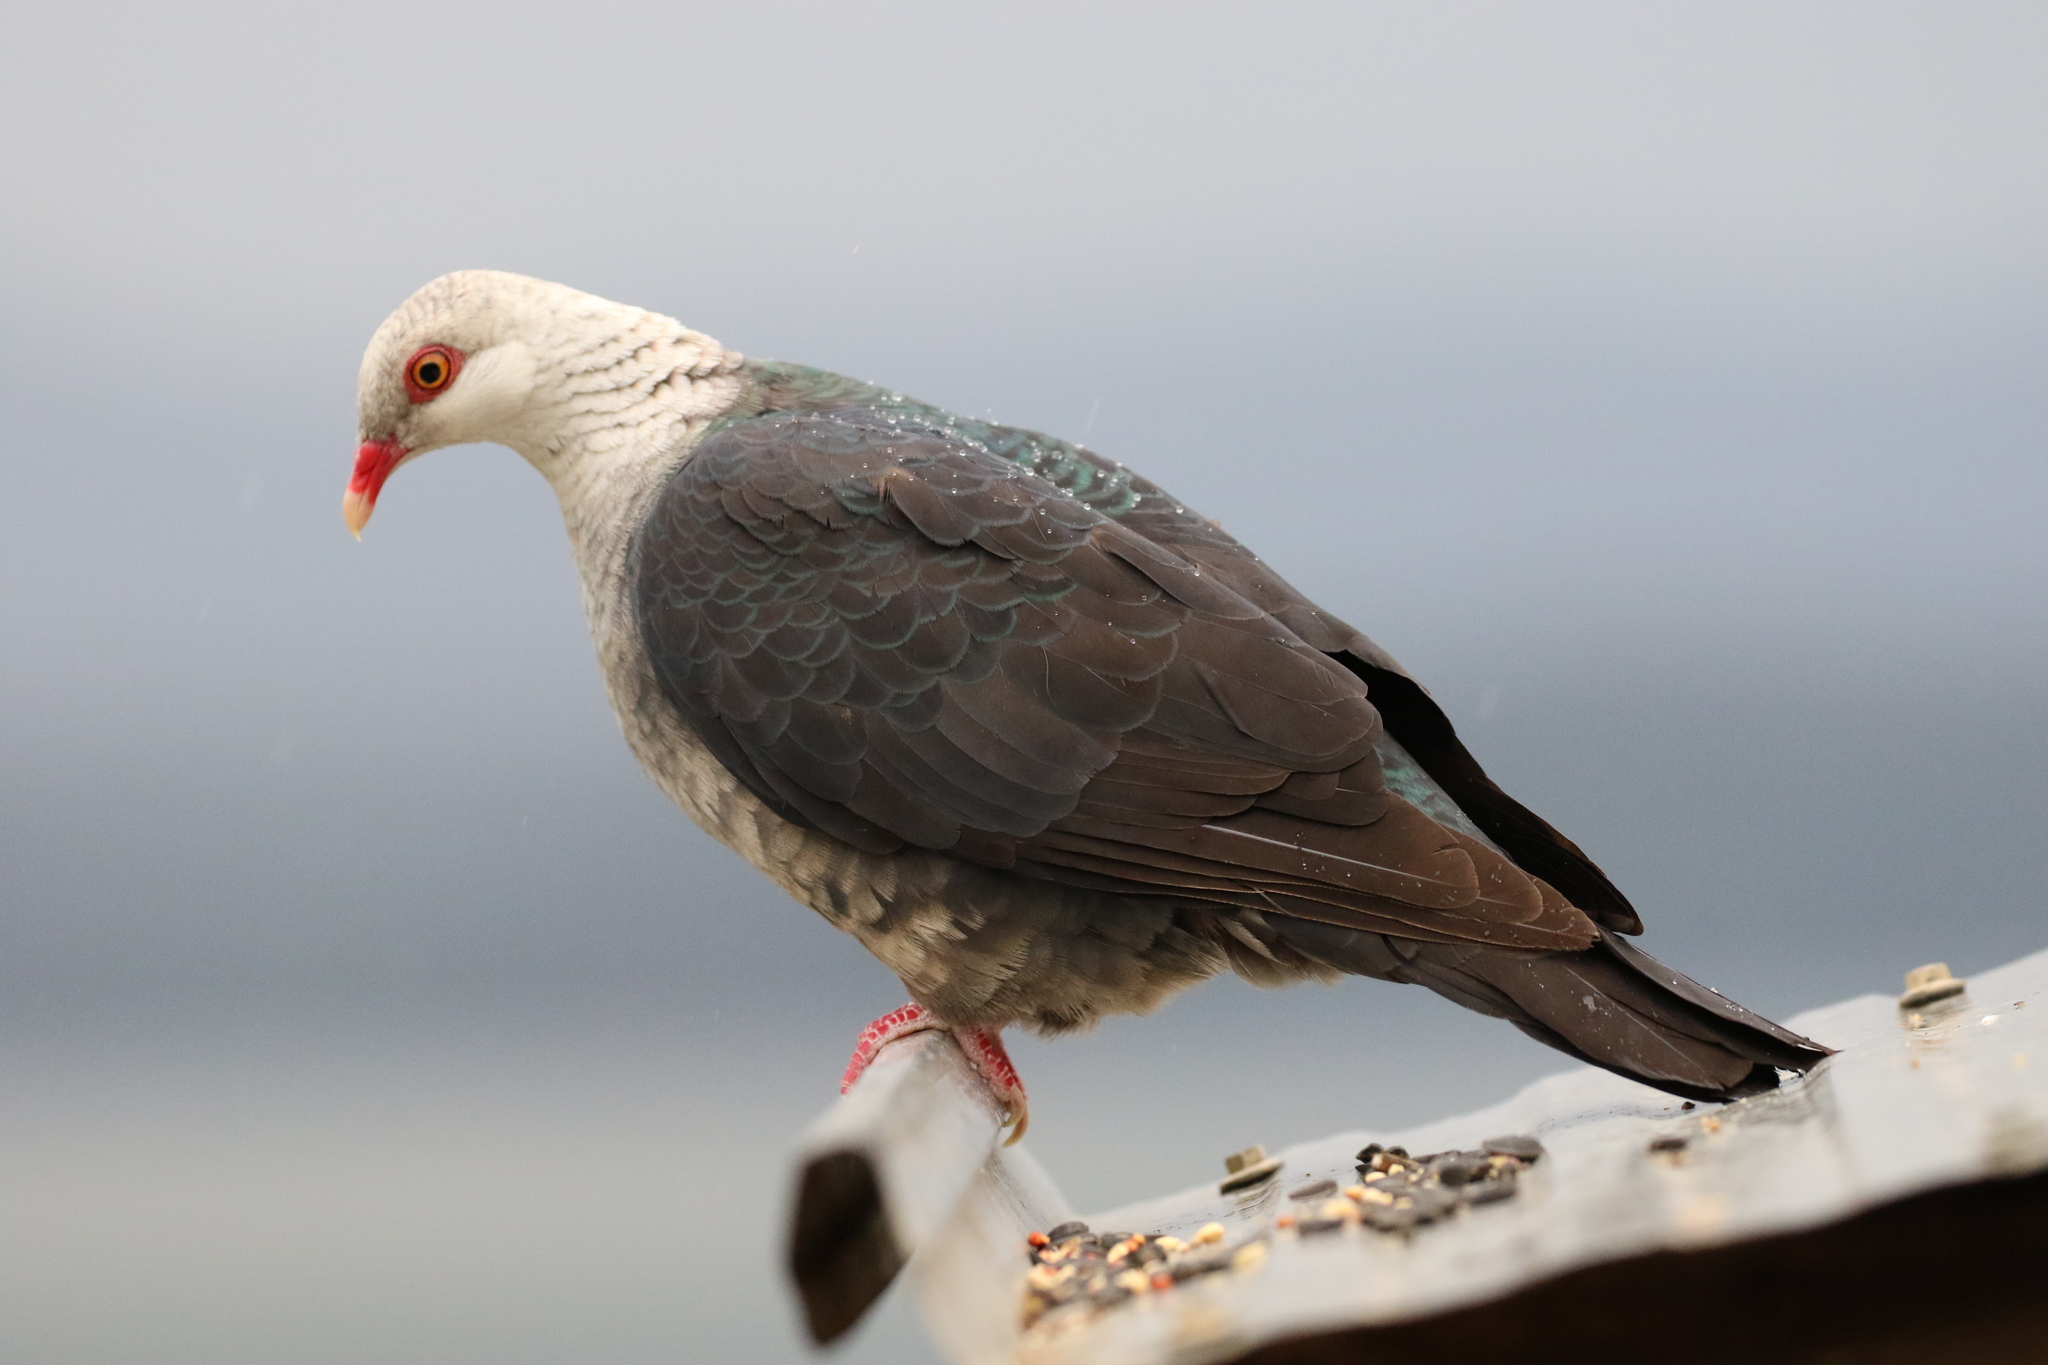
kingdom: Animalia
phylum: Chordata
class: Aves
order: Columbiformes
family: Columbidae
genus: Columba
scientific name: Columba leucomela
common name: White-headed pigeon
